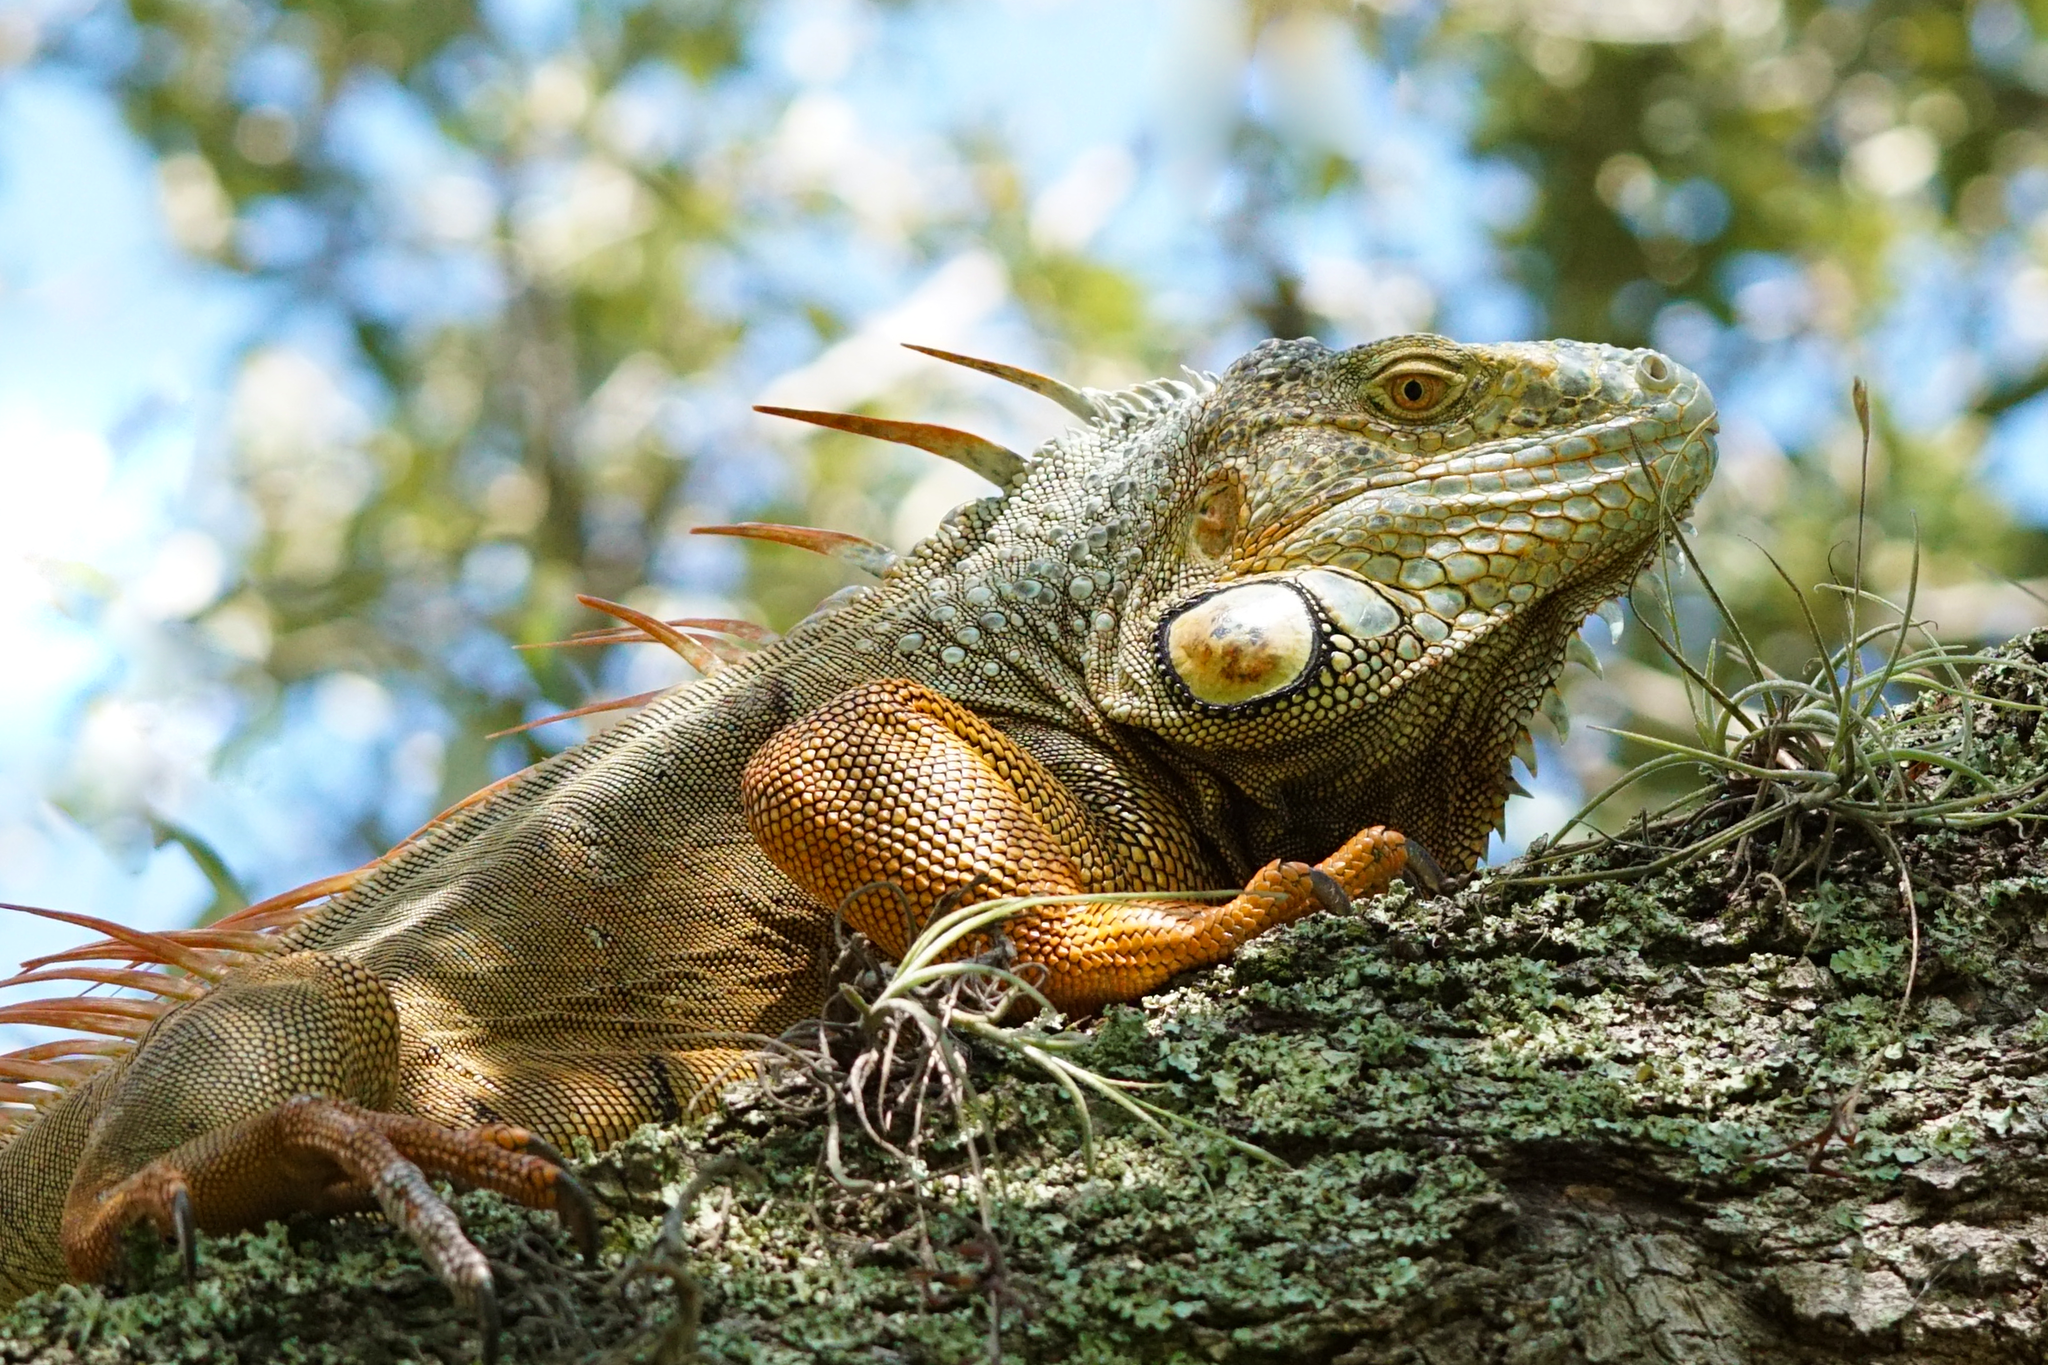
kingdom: Animalia
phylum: Chordata
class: Squamata
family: Iguanidae
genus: Iguana
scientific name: Iguana iguana
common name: Green iguana
